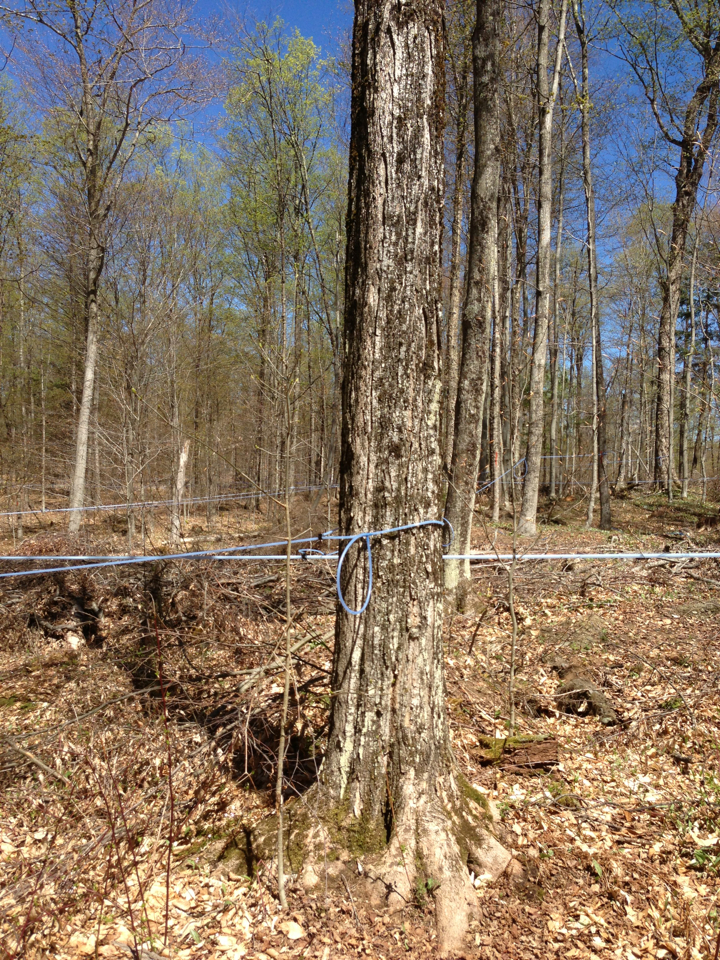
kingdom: Plantae
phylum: Tracheophyta
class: Magnoliopsida
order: Sapindales
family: Sapindaceae
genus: Acer
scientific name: Acer saccharum
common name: Sugar maple
